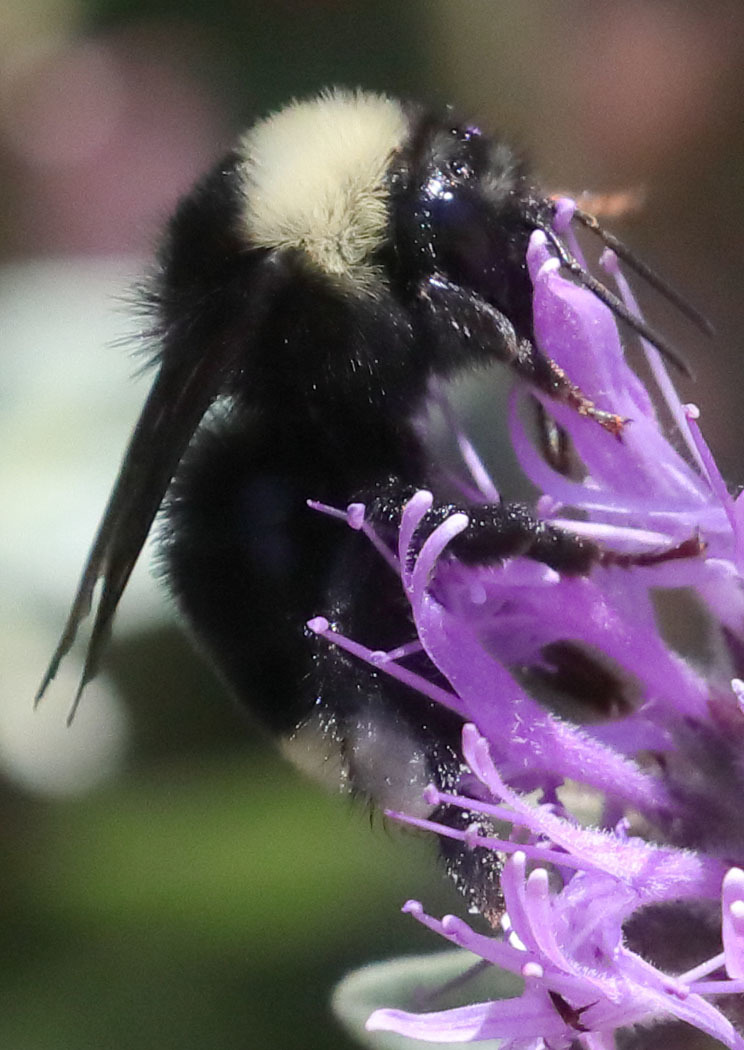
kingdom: Animalia
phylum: Arthropoda
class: Insecta
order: Hymenoptera
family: Apidae
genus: Bombus
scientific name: Bombus californicus
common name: California bumble bee
